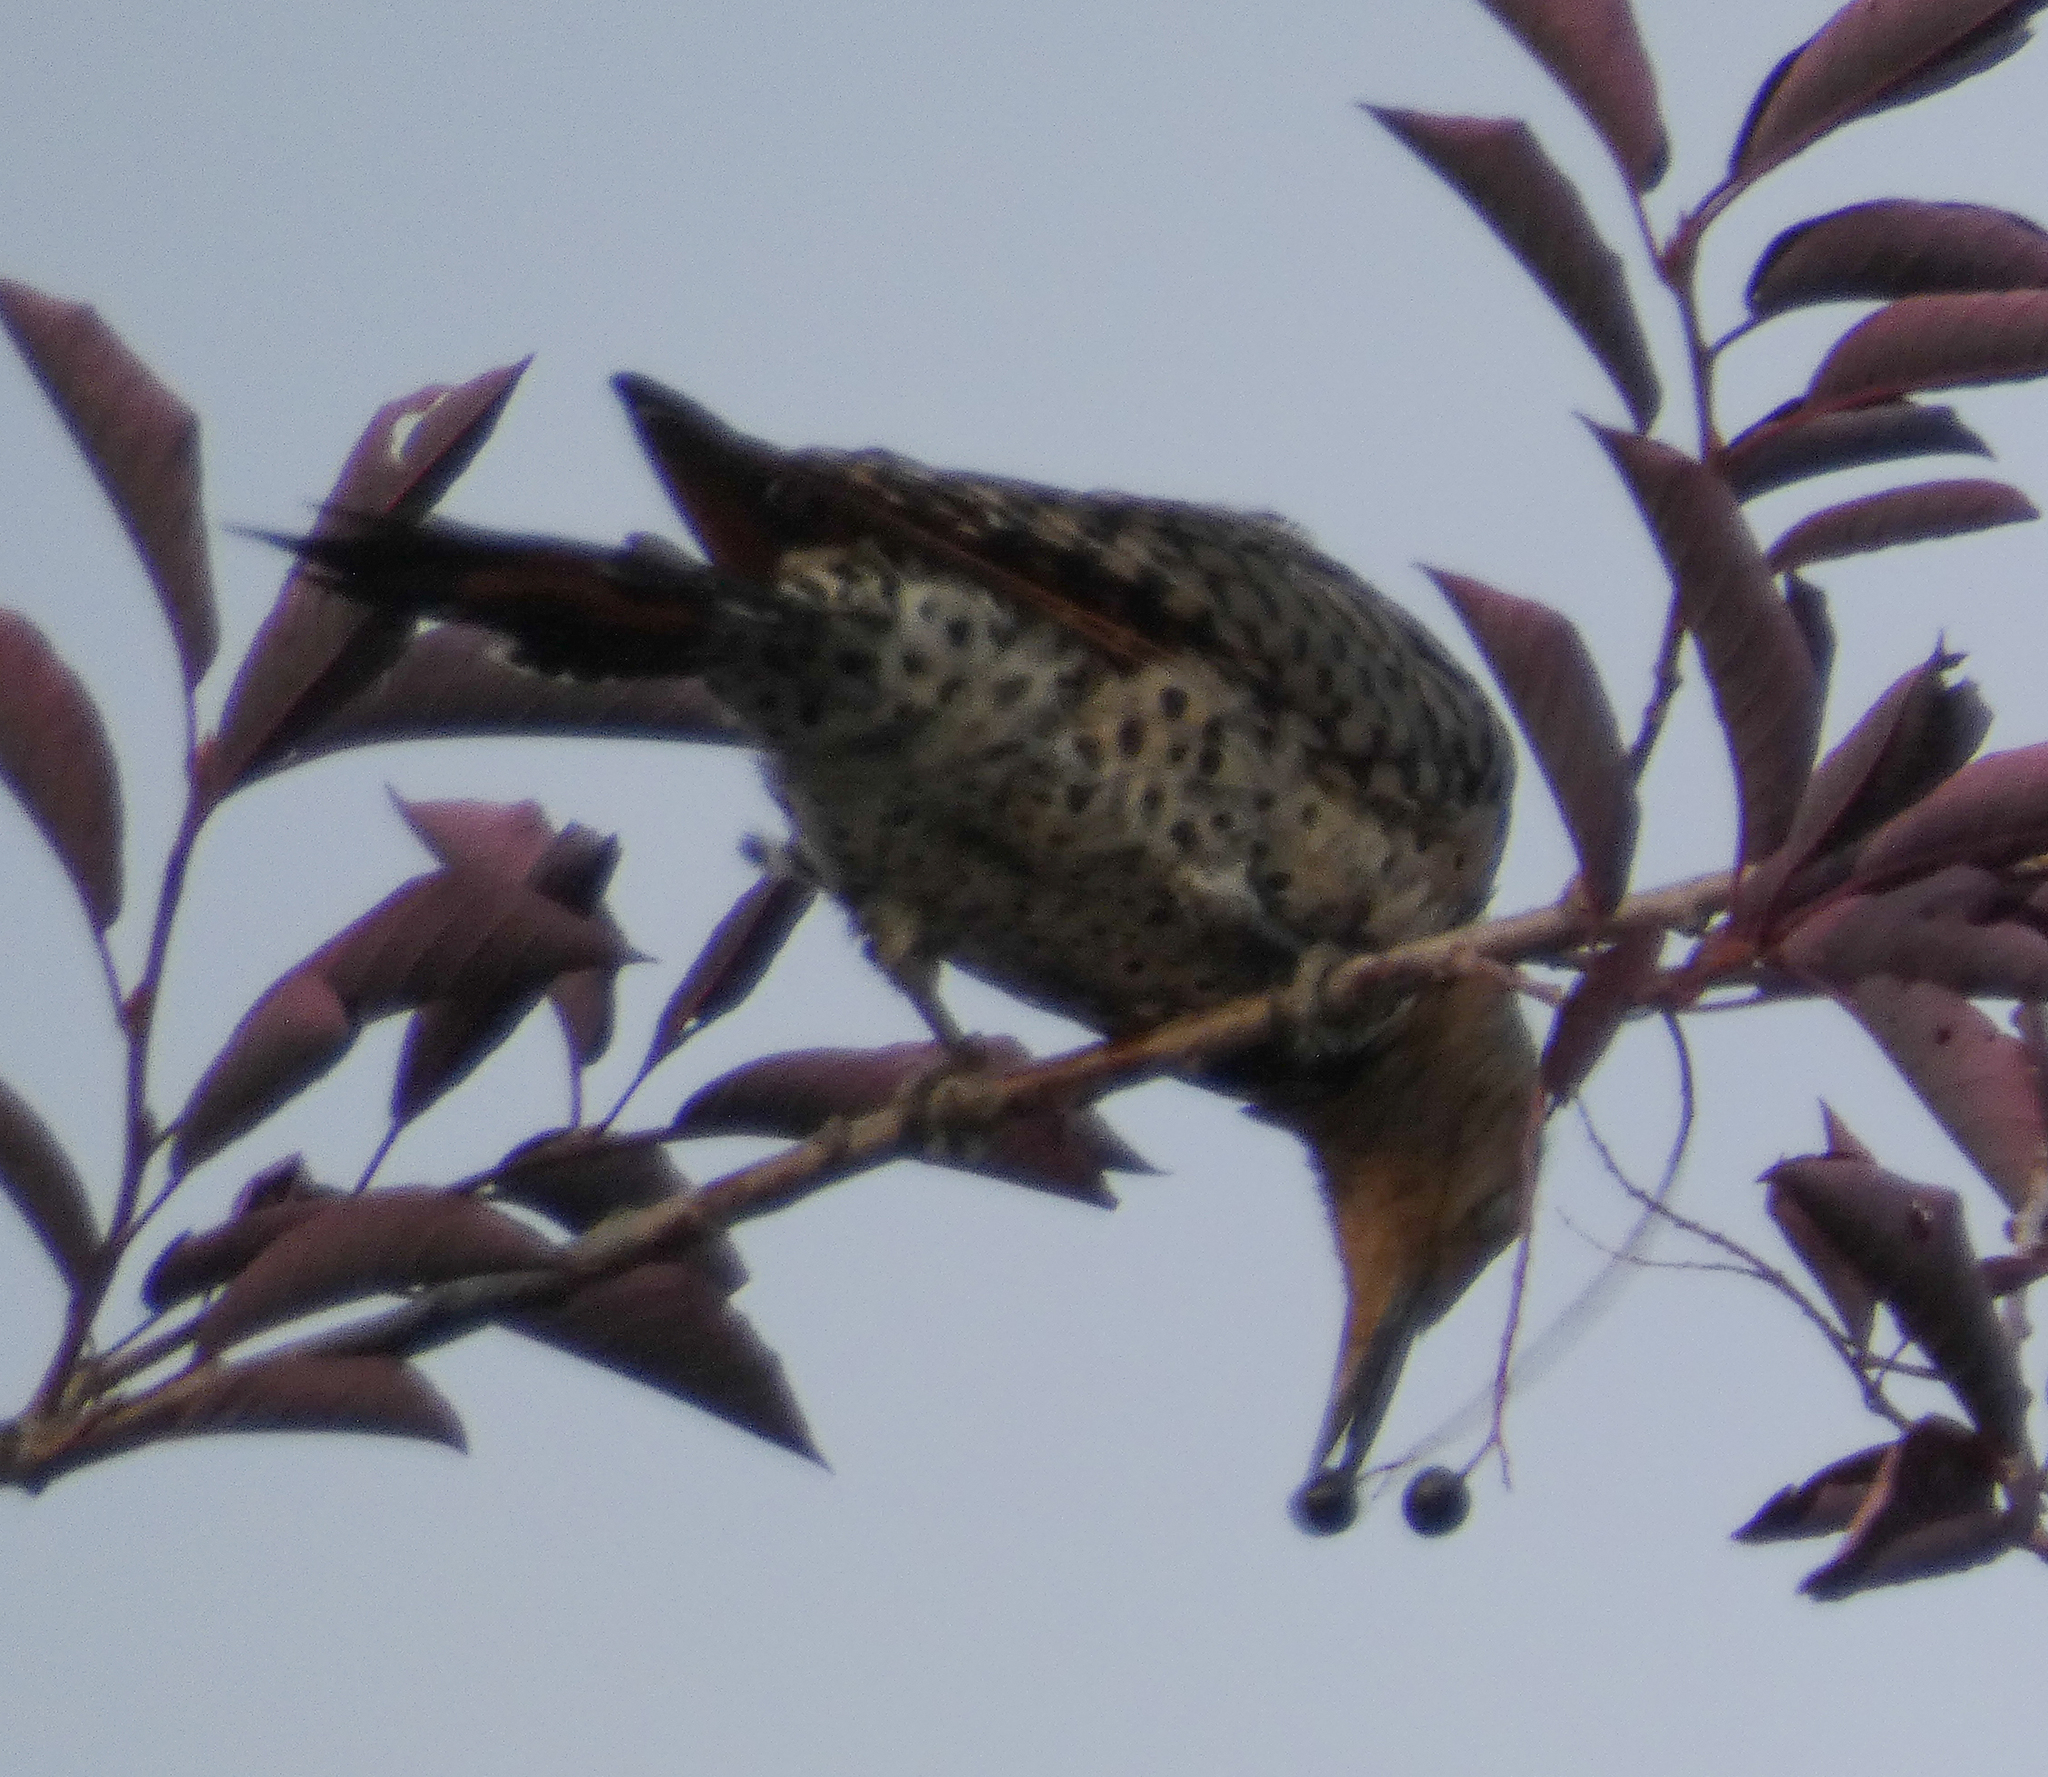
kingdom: Animalia
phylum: Chordata
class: Aves
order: Piciformes
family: Picidae
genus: Colaptes
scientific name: Colaptes auratus
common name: Northern flicker
